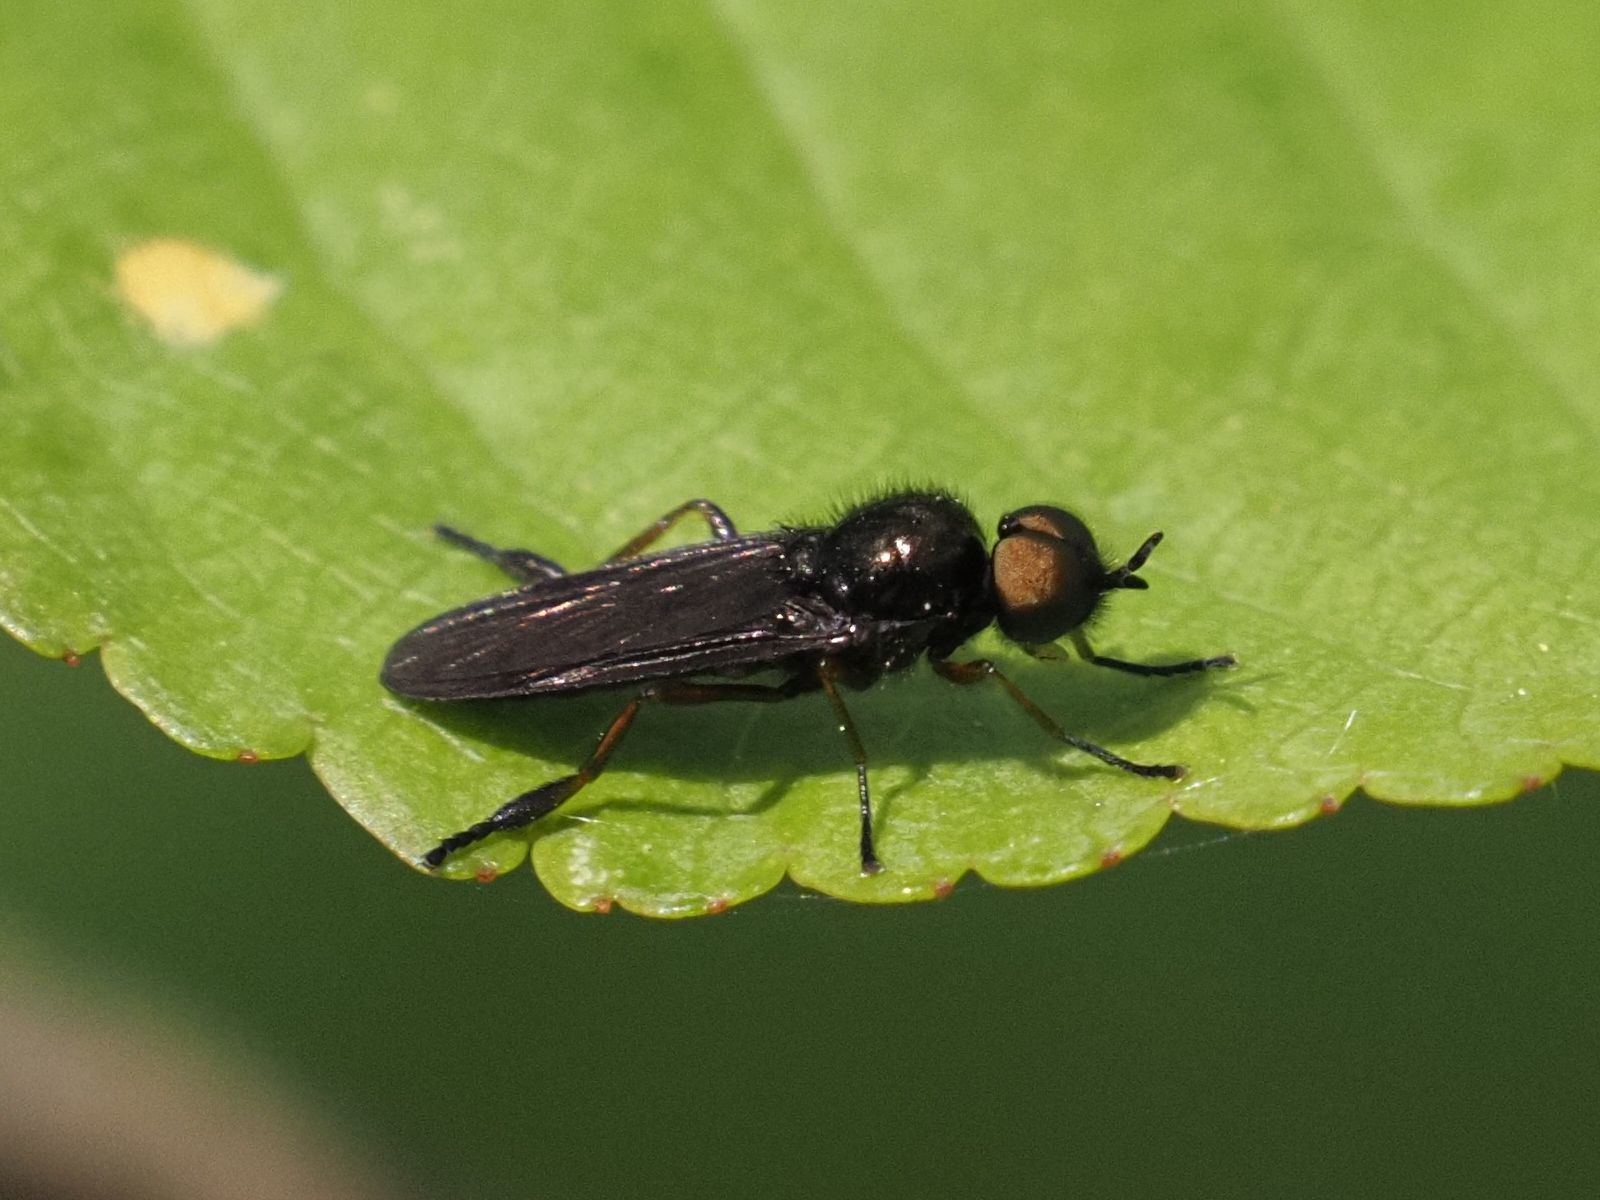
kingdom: Animalia
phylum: Arthropoda
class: Insecta
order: Diptera
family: Stratiomyidae
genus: Beris
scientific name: Beris chalybata
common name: Murky-legged black legionnaire
